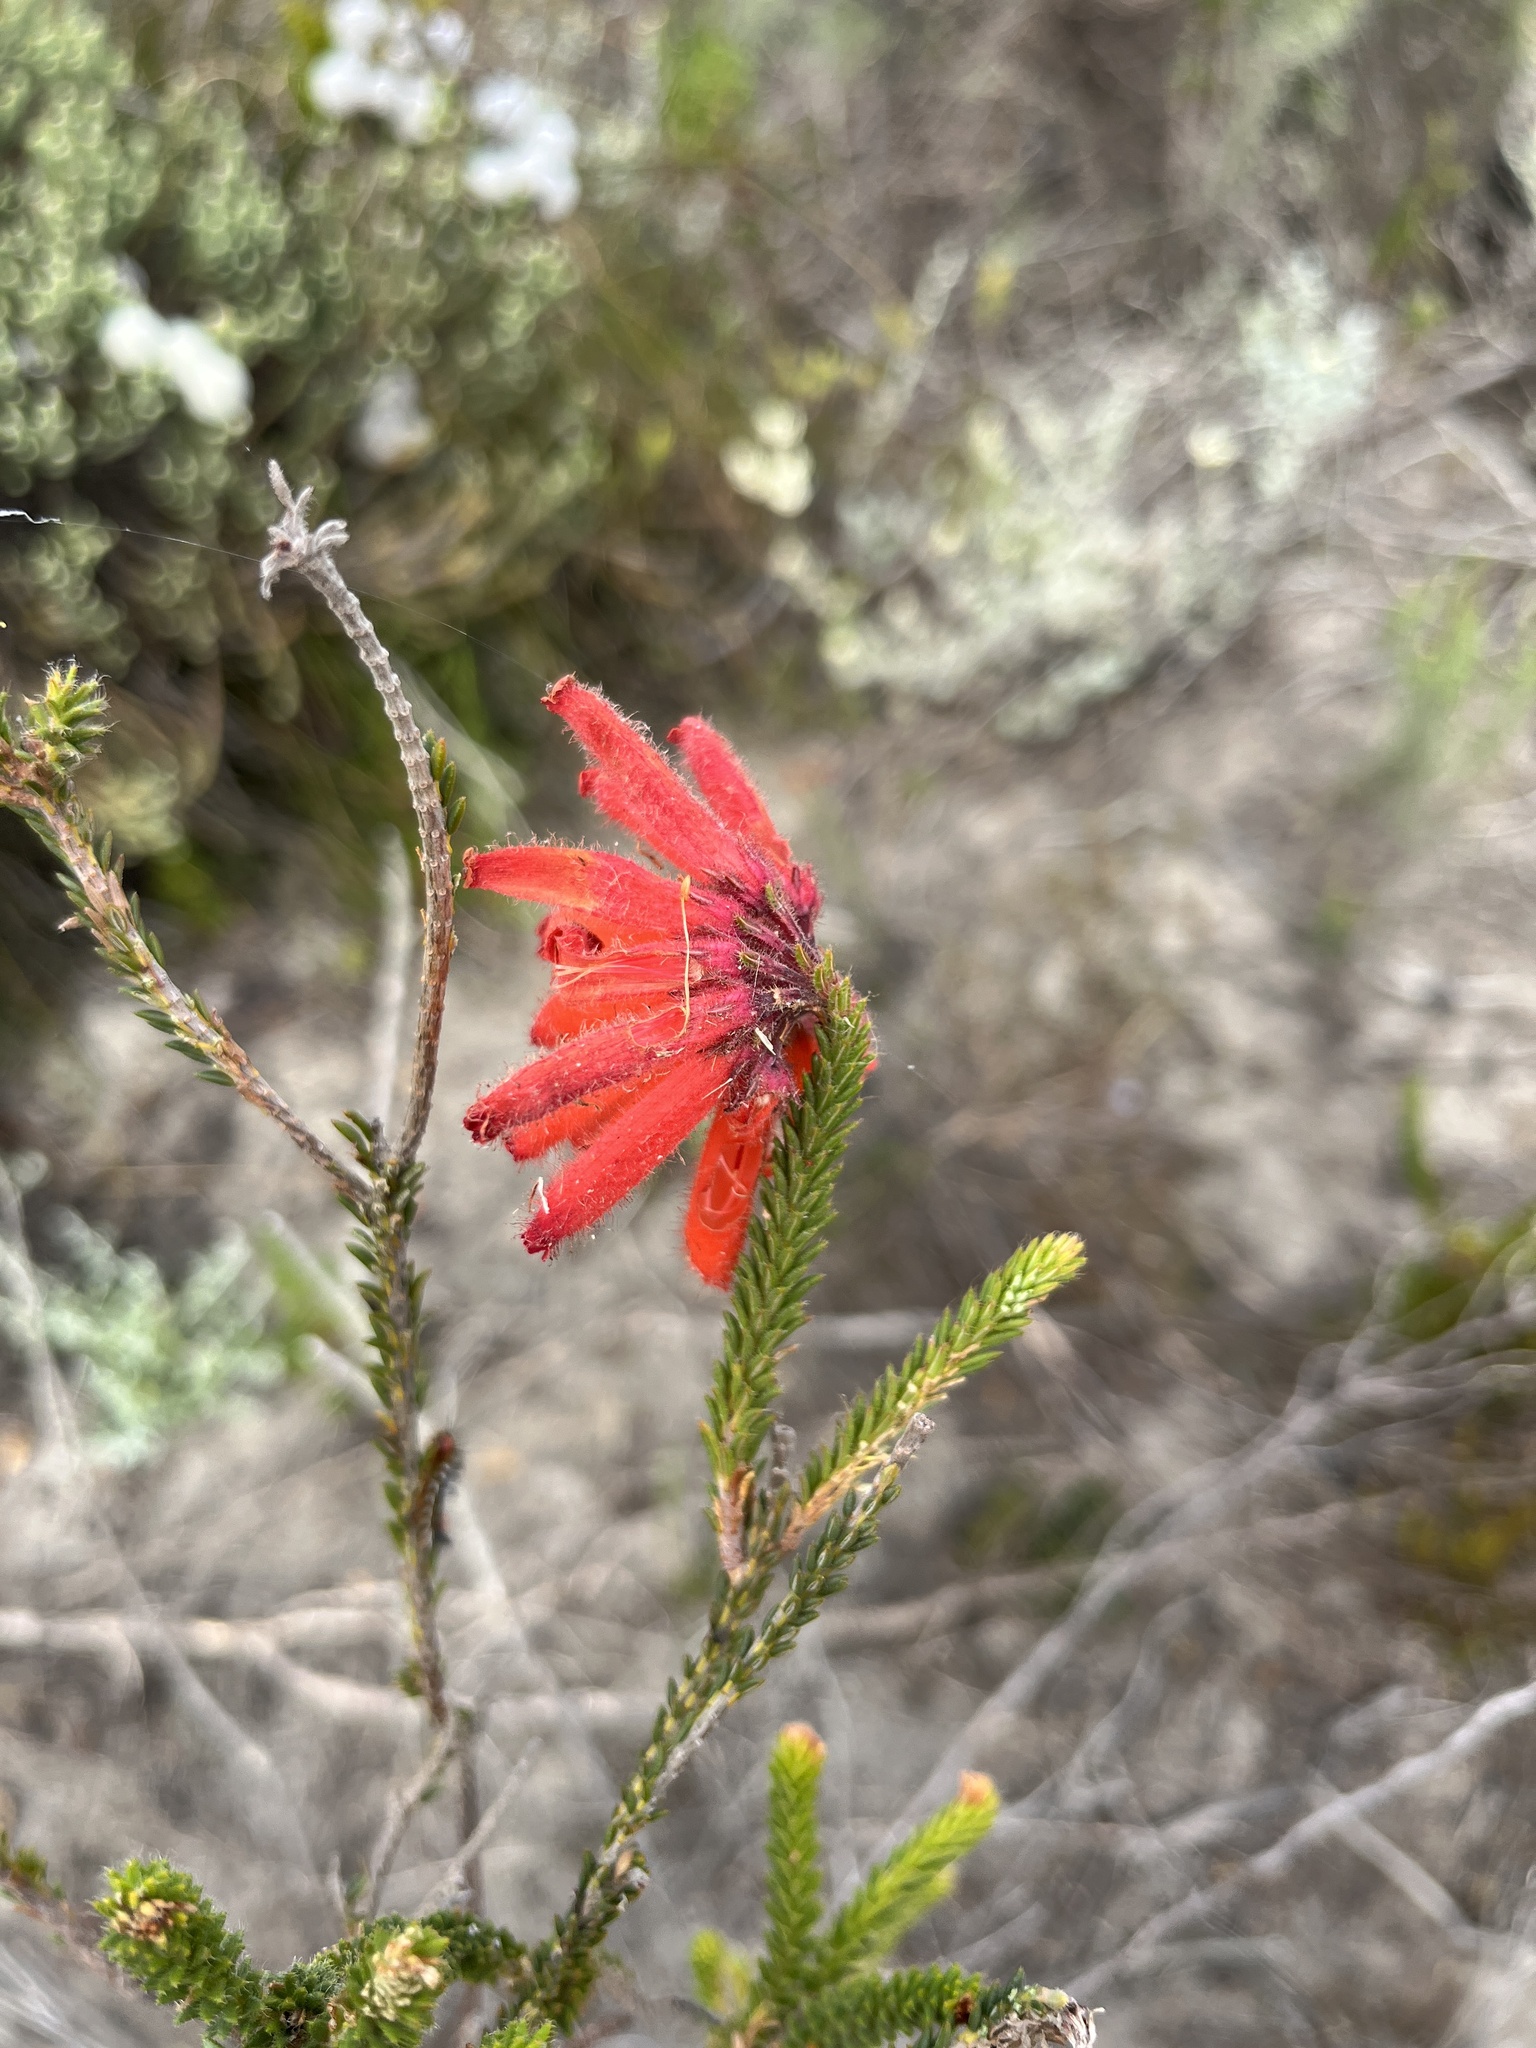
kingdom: Plantae
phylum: Tracheophyta
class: Magnoliopsida
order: Ericales
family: Ericaceae
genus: Erica
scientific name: Erica cerinthoides
